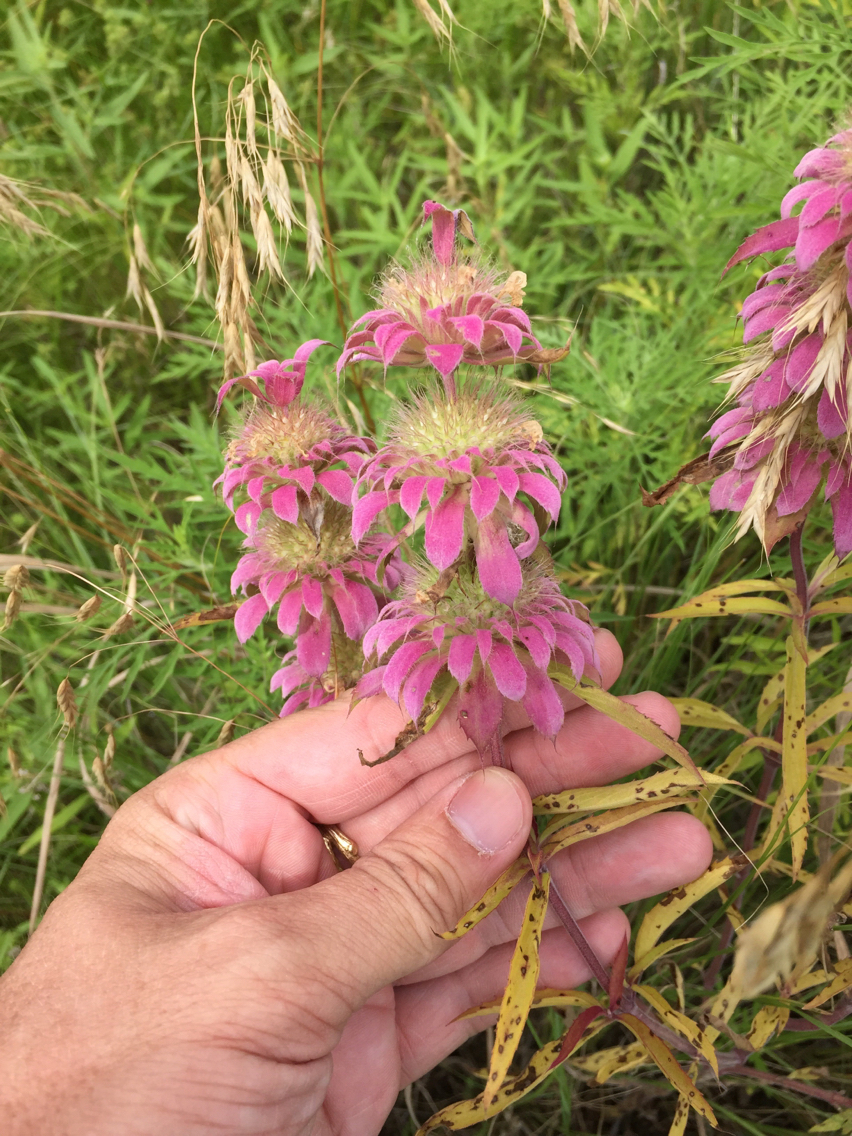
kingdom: Plantae
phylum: Tracheophyta
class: Magnoliopsida
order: Lamiales
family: Lamiaceae
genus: Monarda
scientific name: Monarda citriodora
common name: Lemon beebalm
